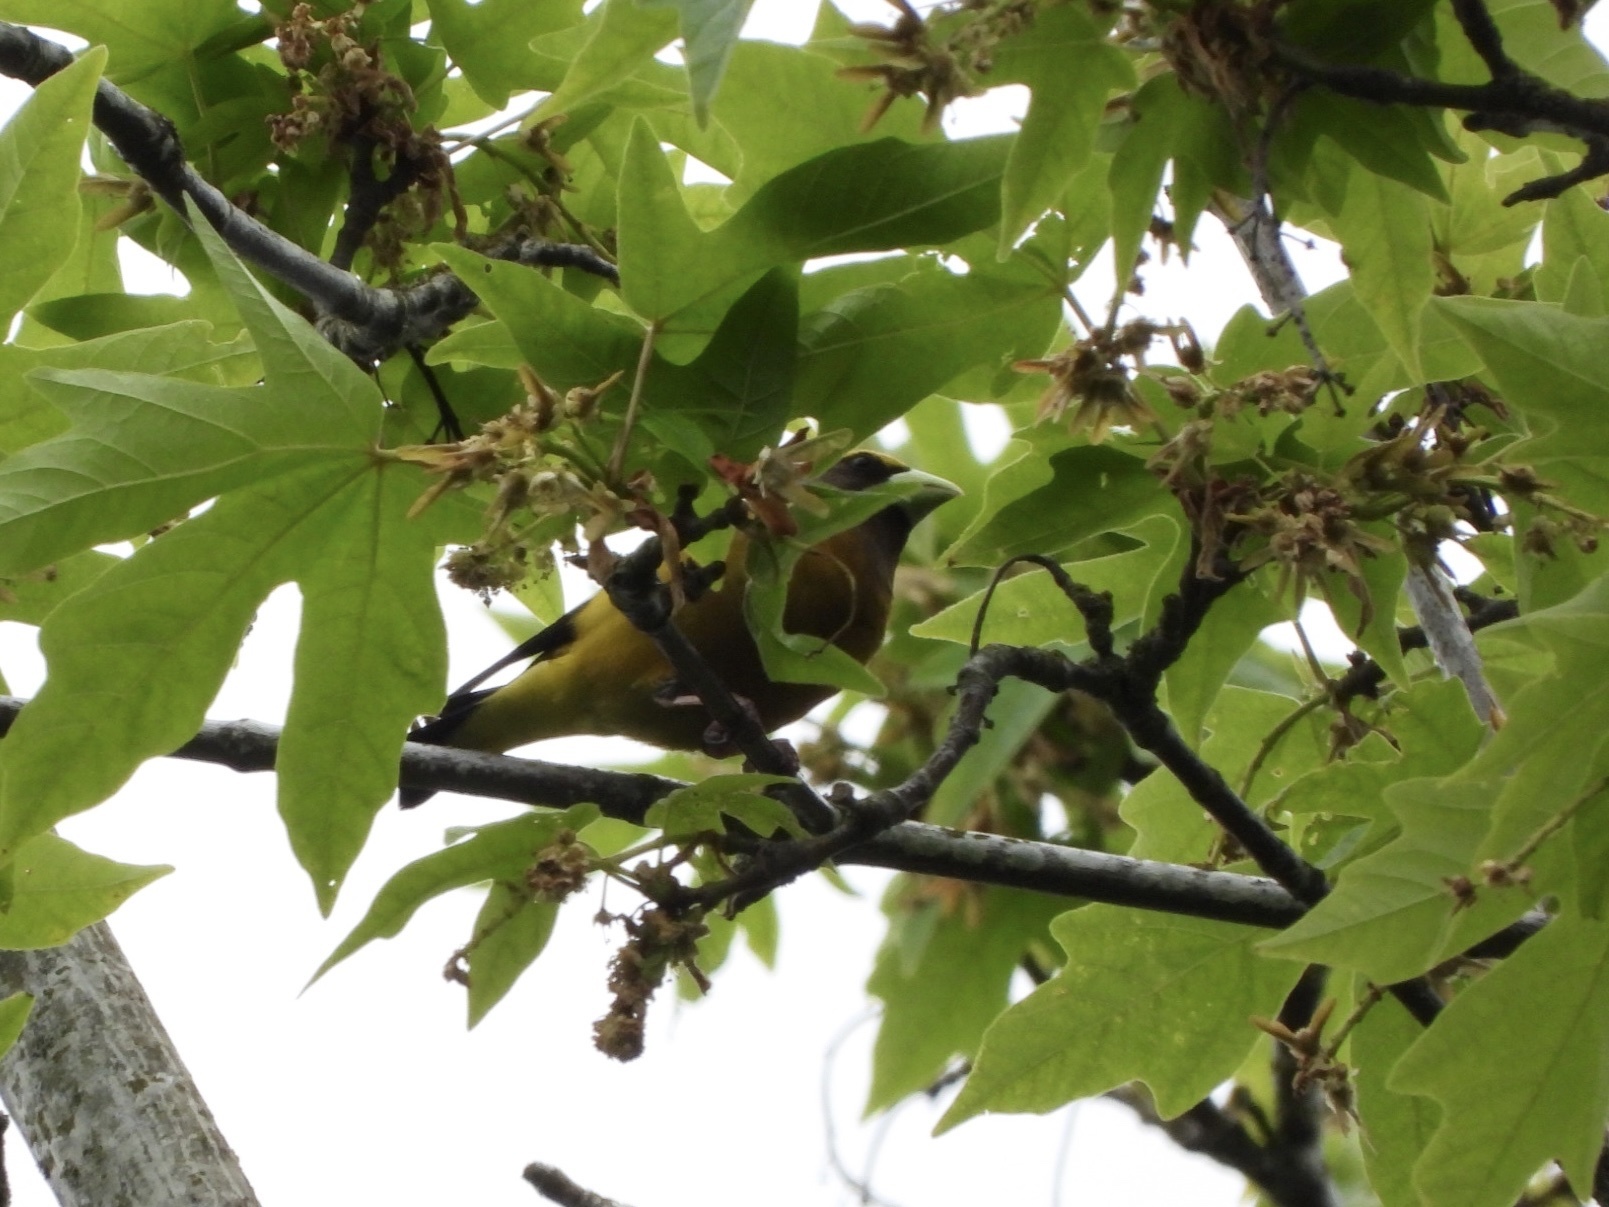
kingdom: Animalia
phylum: Chordata
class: Aves
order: Passeriformes
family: Fringillidae
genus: Hesperiphona
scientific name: Hesperiphona vespertina
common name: Evening grosbeak
